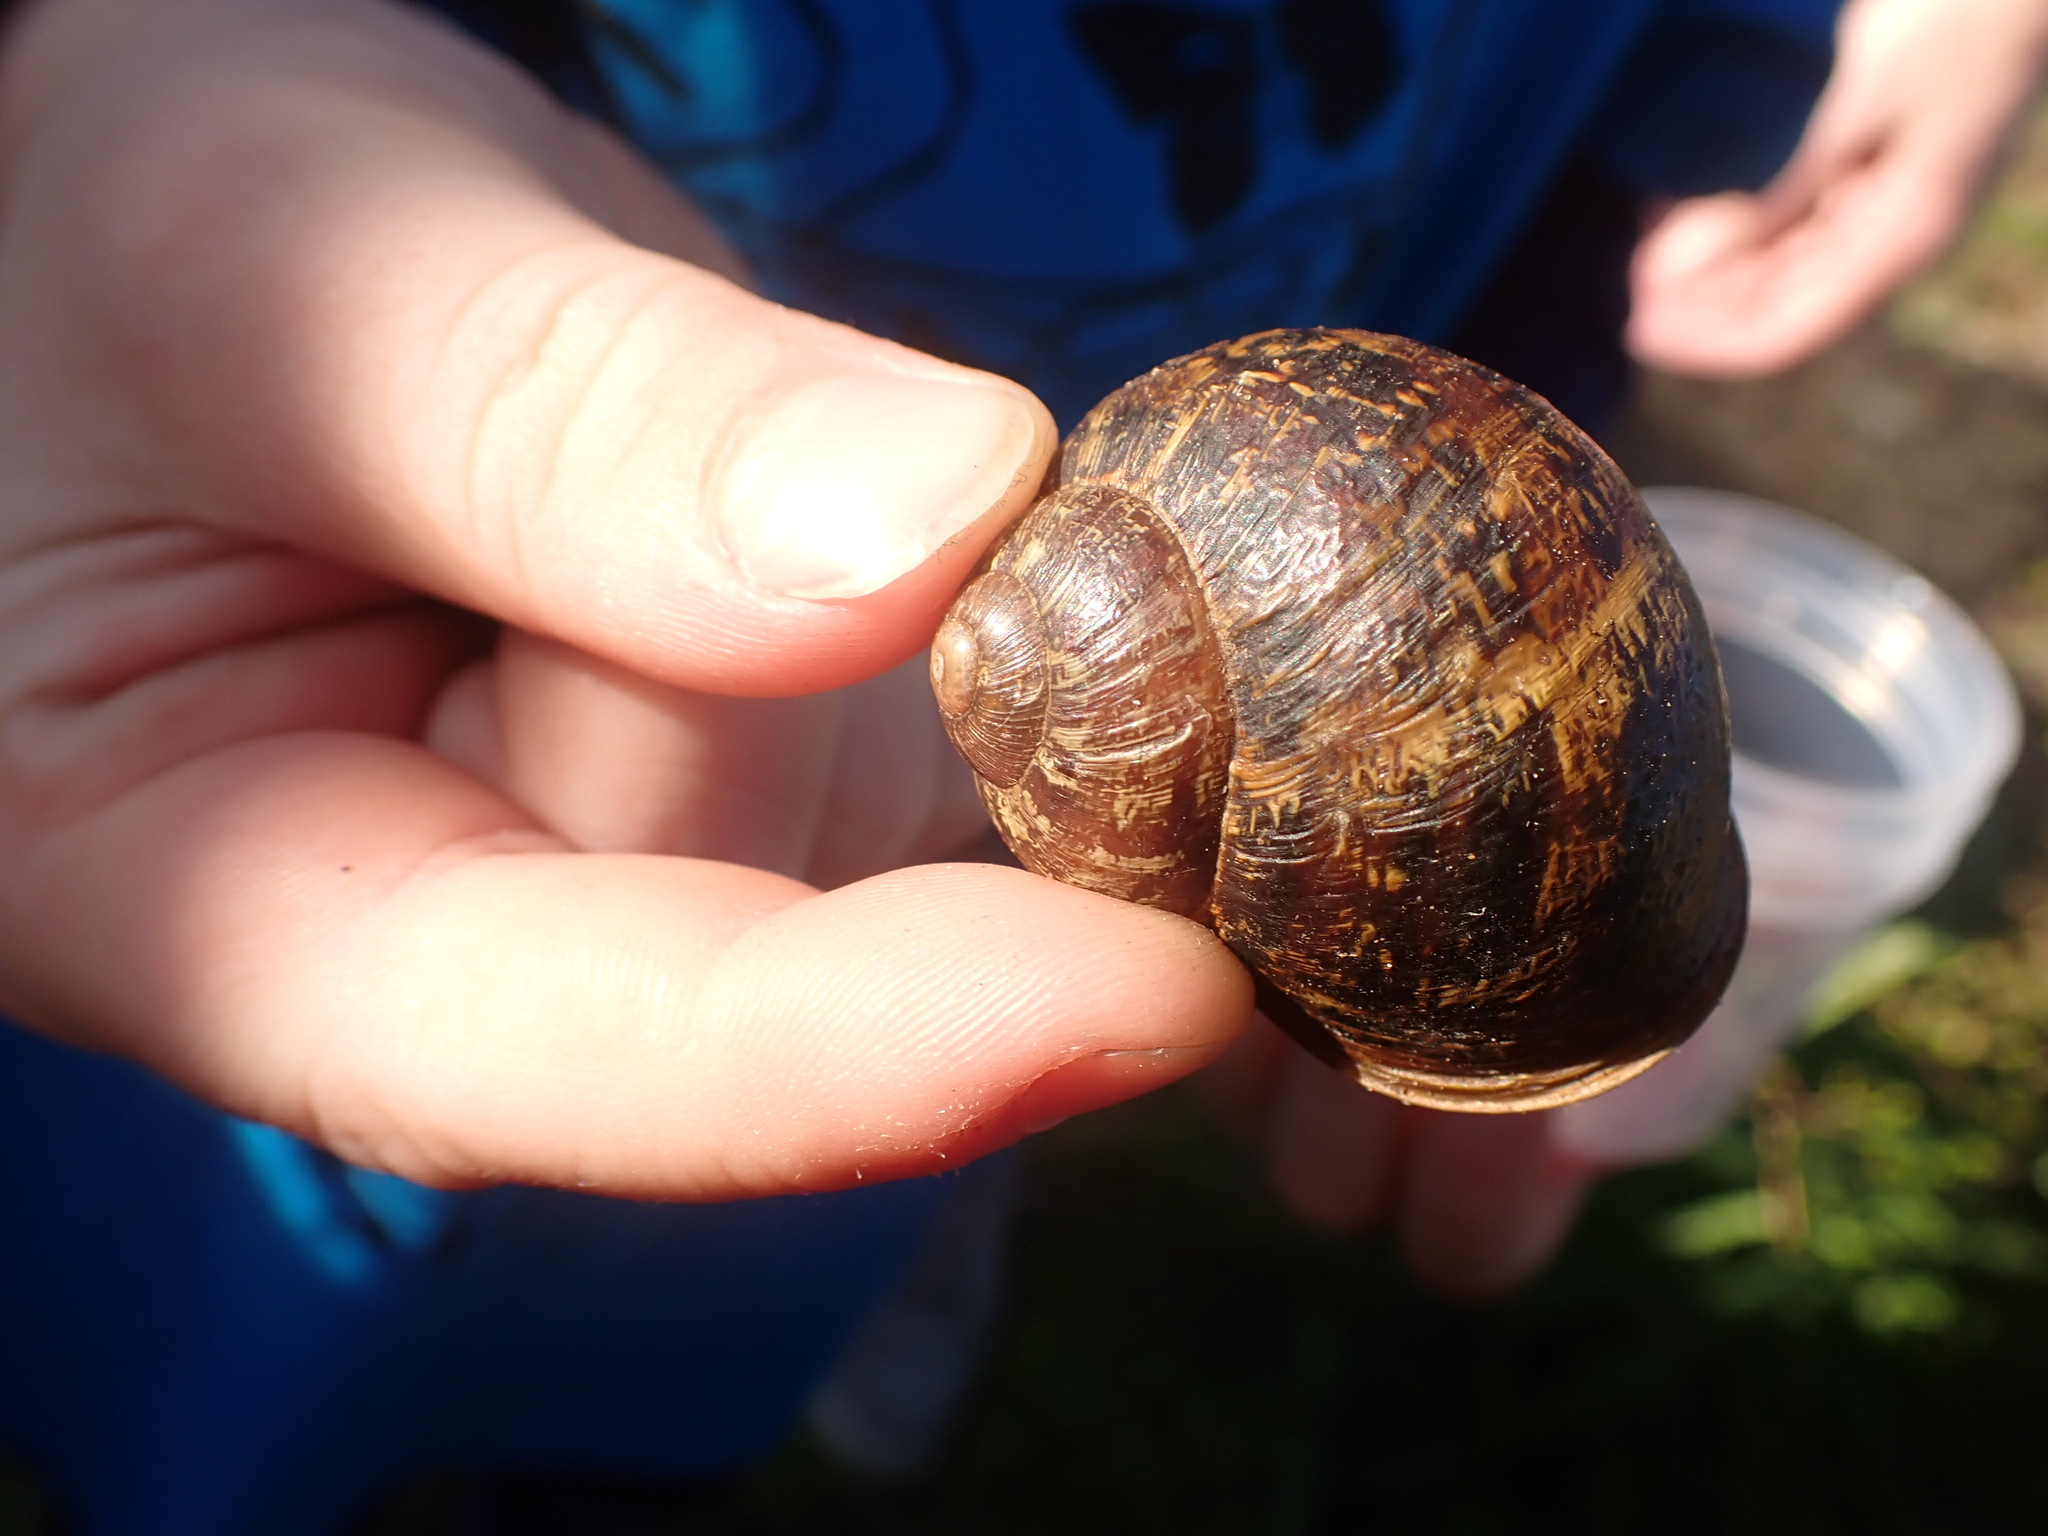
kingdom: Animalia
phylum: Mollusca
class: Gastropoda
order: Stylommatophora
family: Helicidae
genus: Cornu
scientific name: Cornu aspersum
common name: Brown garden snail
